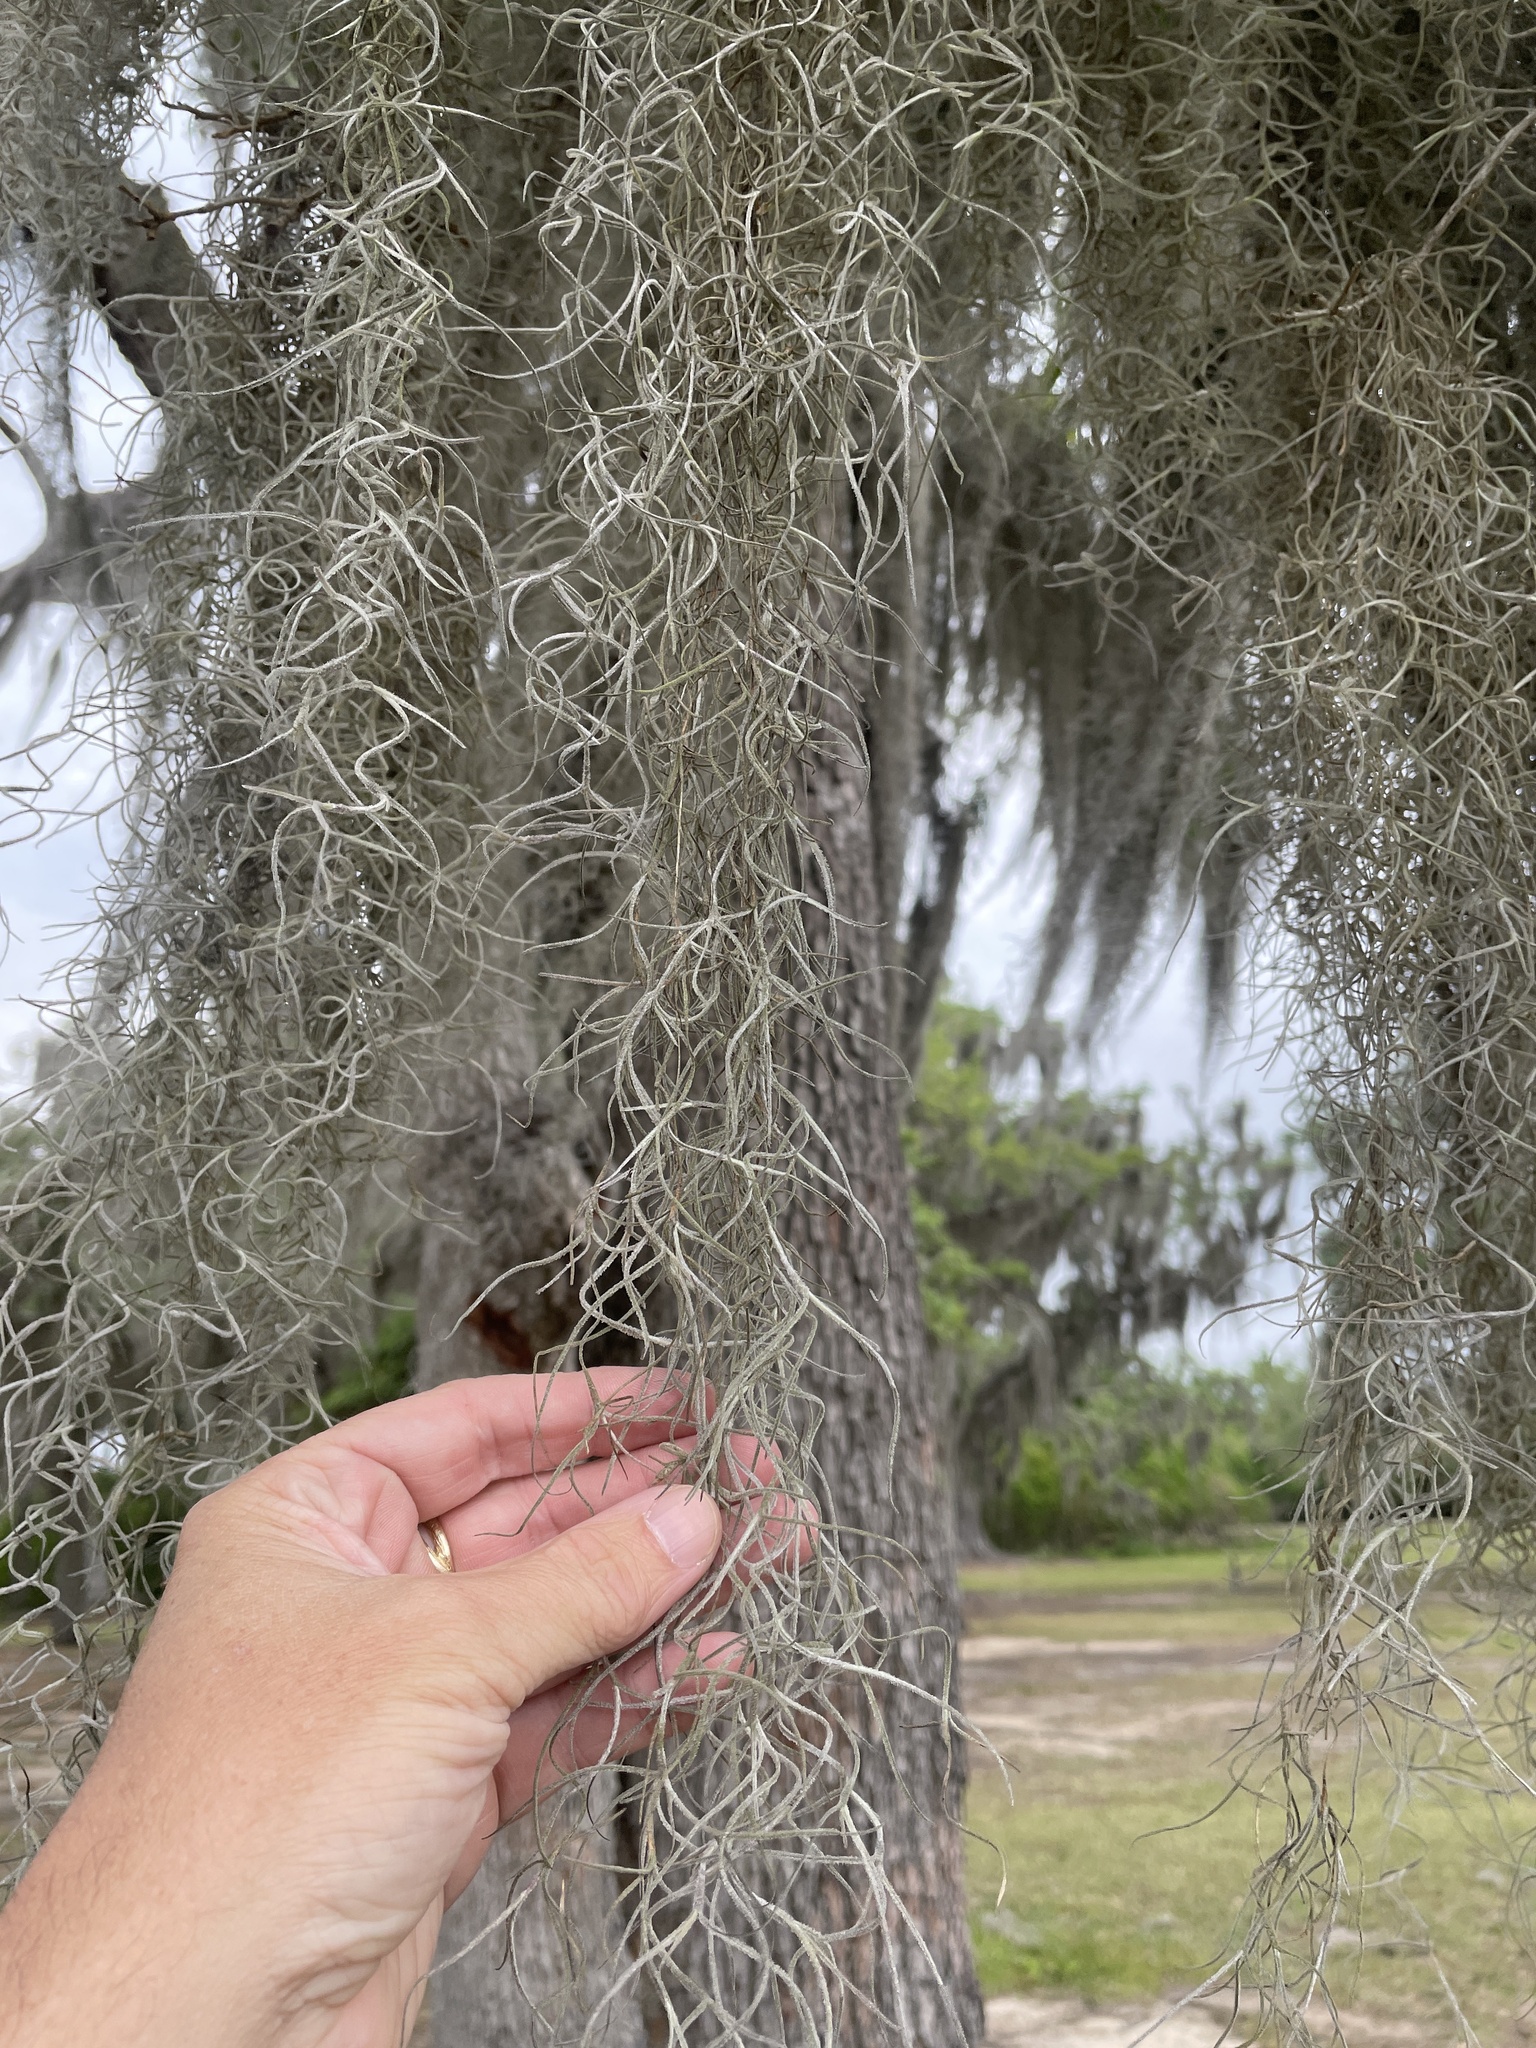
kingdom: Plantae
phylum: Tracheophyta
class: Liliopsida
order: Poales
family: Bromeliaceae
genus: Tillandsia
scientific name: Tillandsia usneoides
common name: Spanish moss
